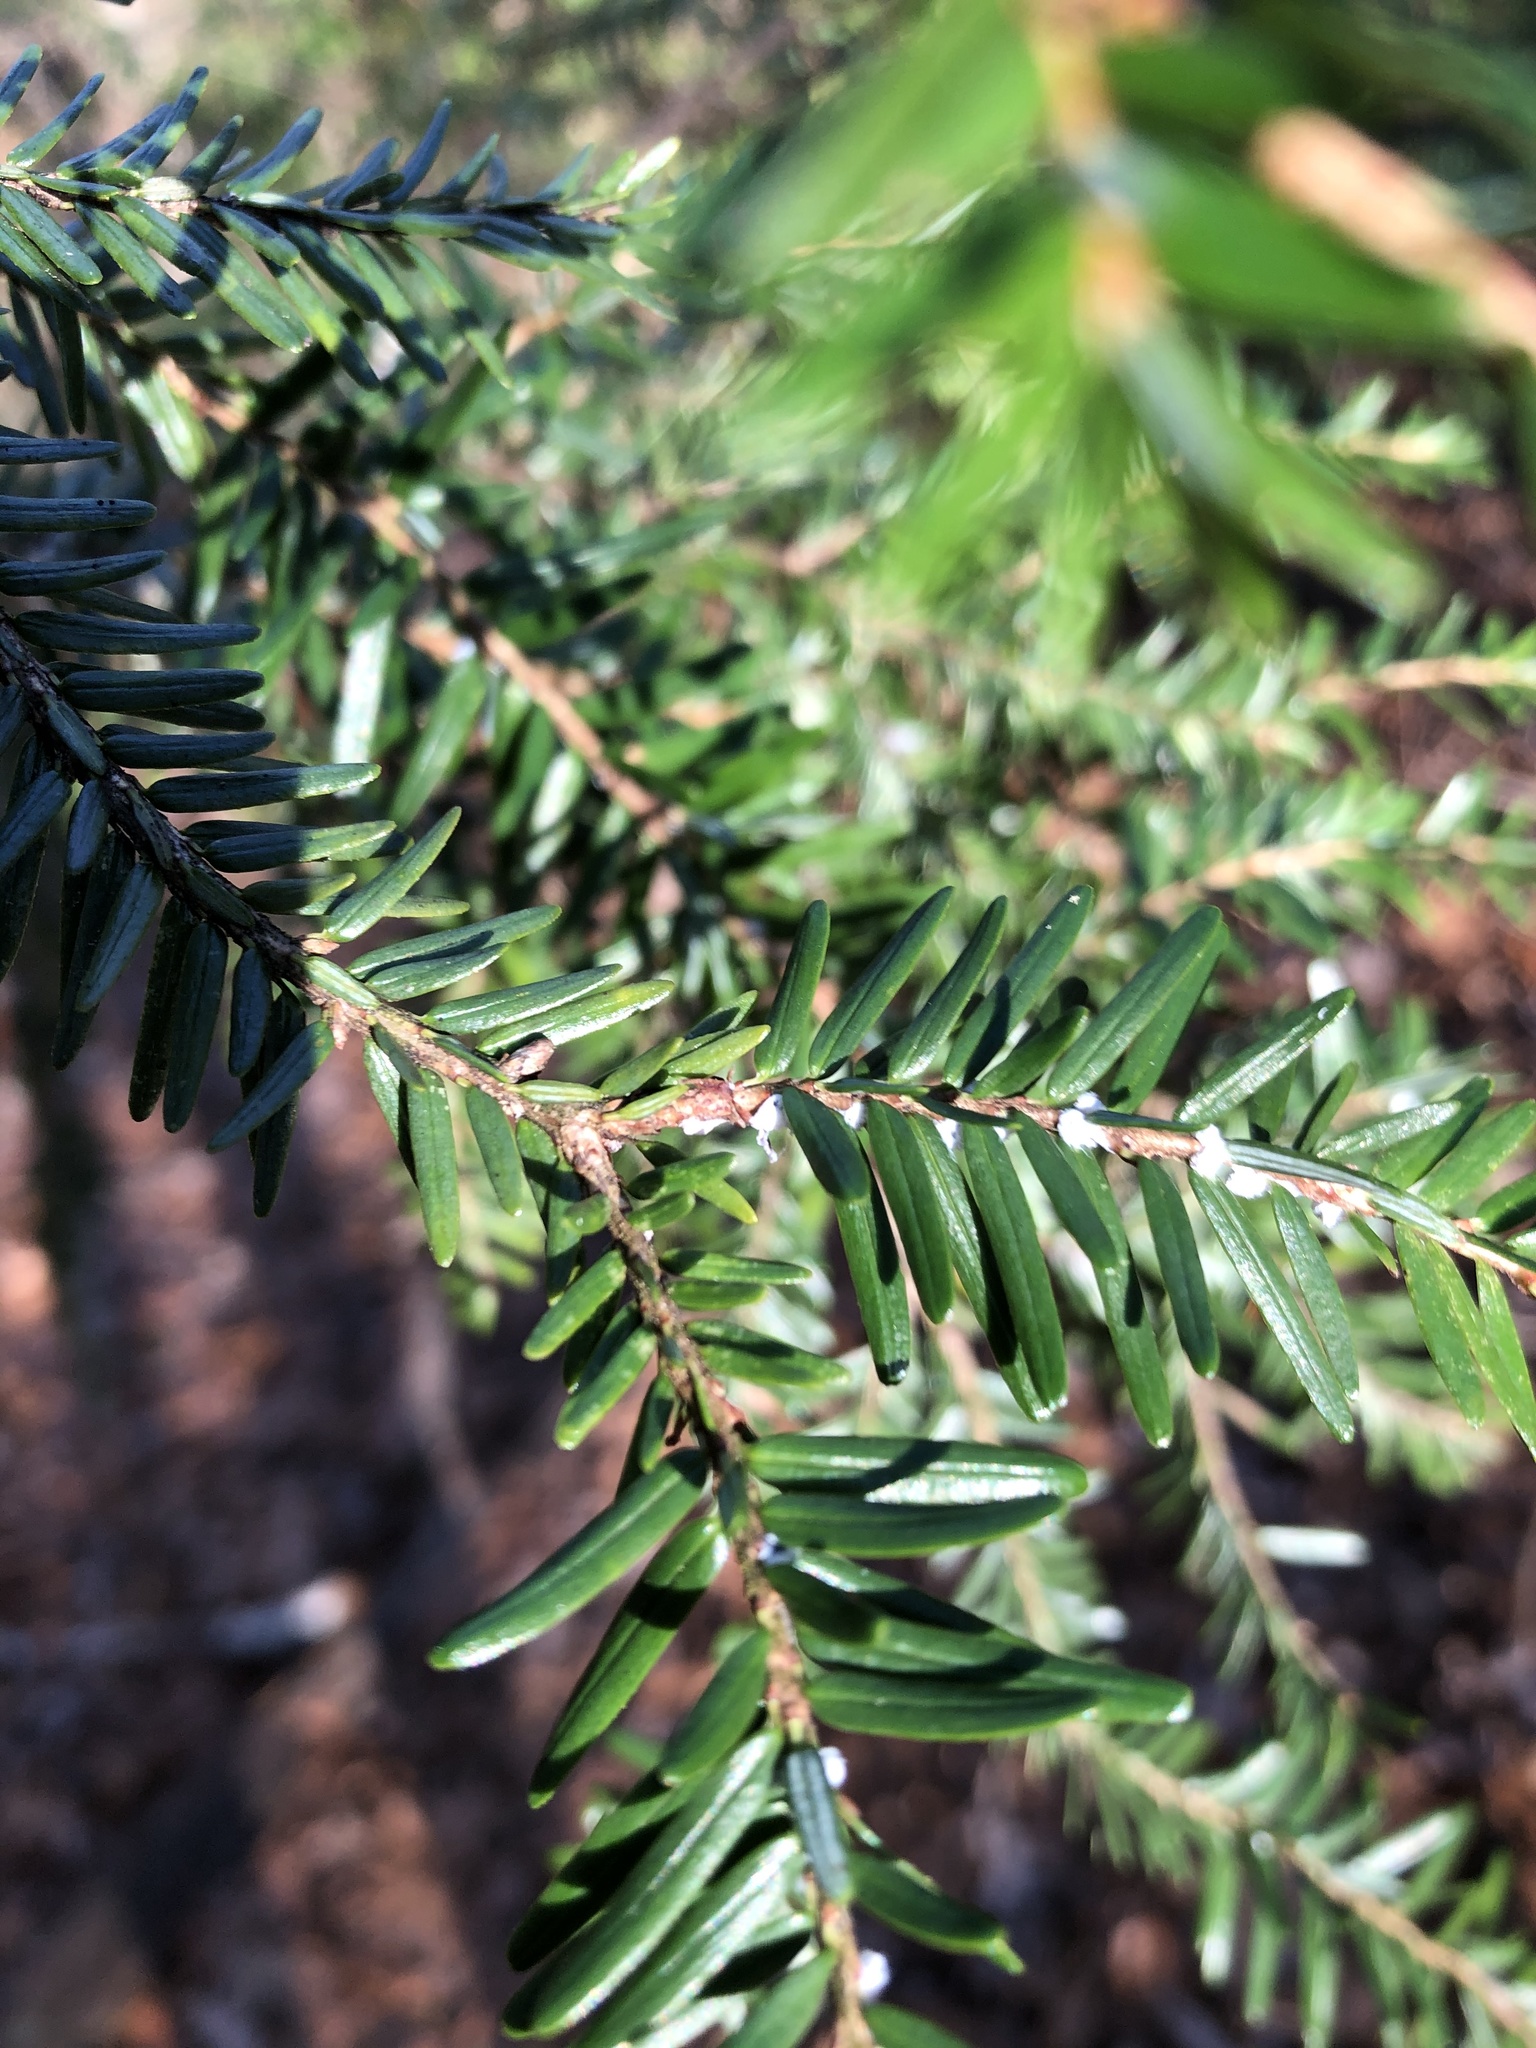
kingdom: Animalia
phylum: Arthropoda
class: Insecta
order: Hemiptera
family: Adelgidae
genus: Adelges
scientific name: Adelges tsugae
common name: Hemlock woolly adelgid
